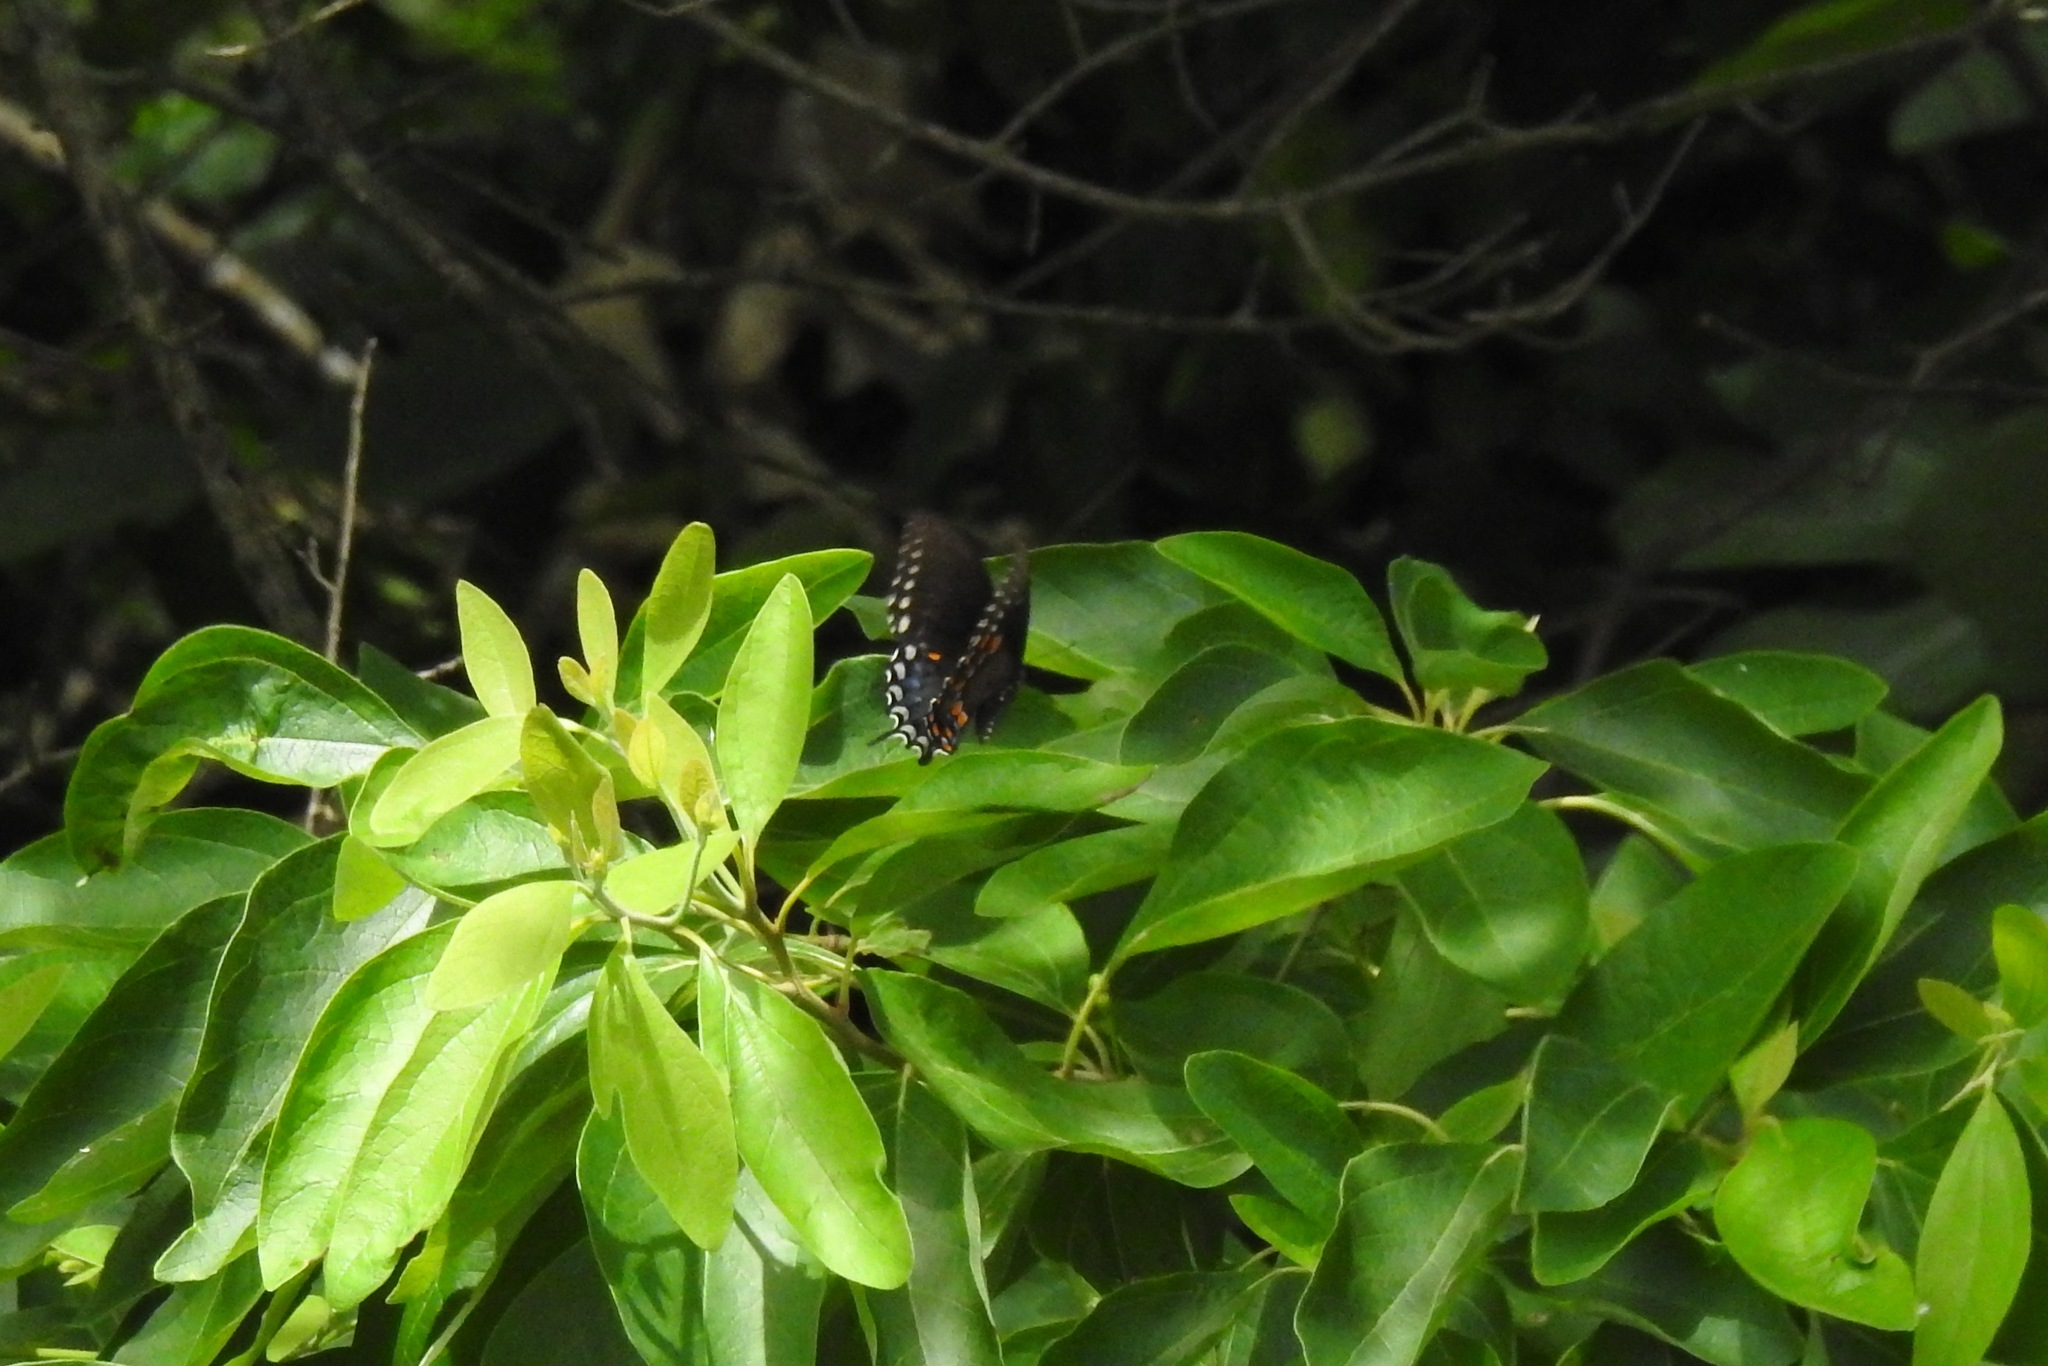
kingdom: Animalia
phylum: Arthropoda
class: Insecta
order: Lepidoptera
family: Papilionidae
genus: Papilio
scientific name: Papilio troilus
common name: Spicebush swallowtail
